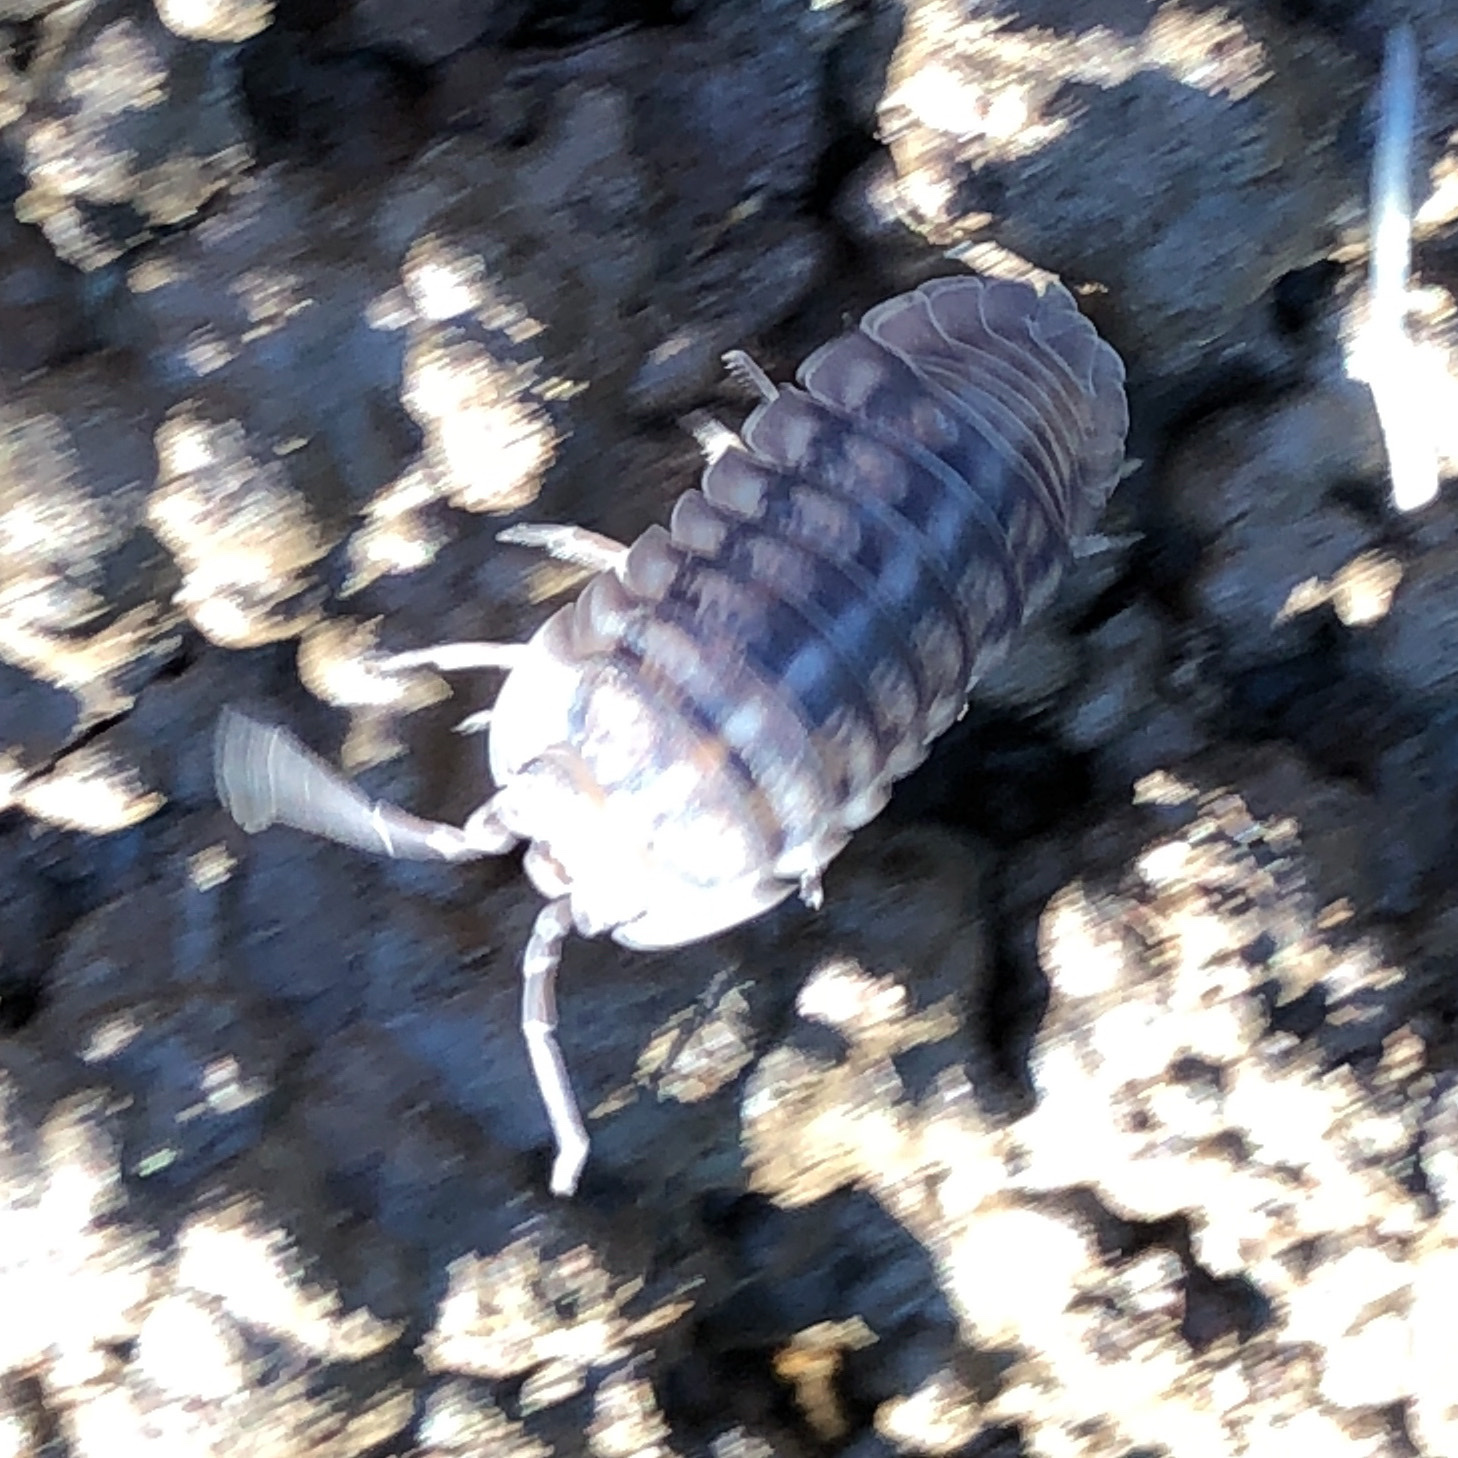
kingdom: Animalia
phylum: Arthropoda
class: Malacostraca
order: Isopoda
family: Armadillidiidae
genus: Armadillidium
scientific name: Armadillidium nasatum
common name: Isopod
